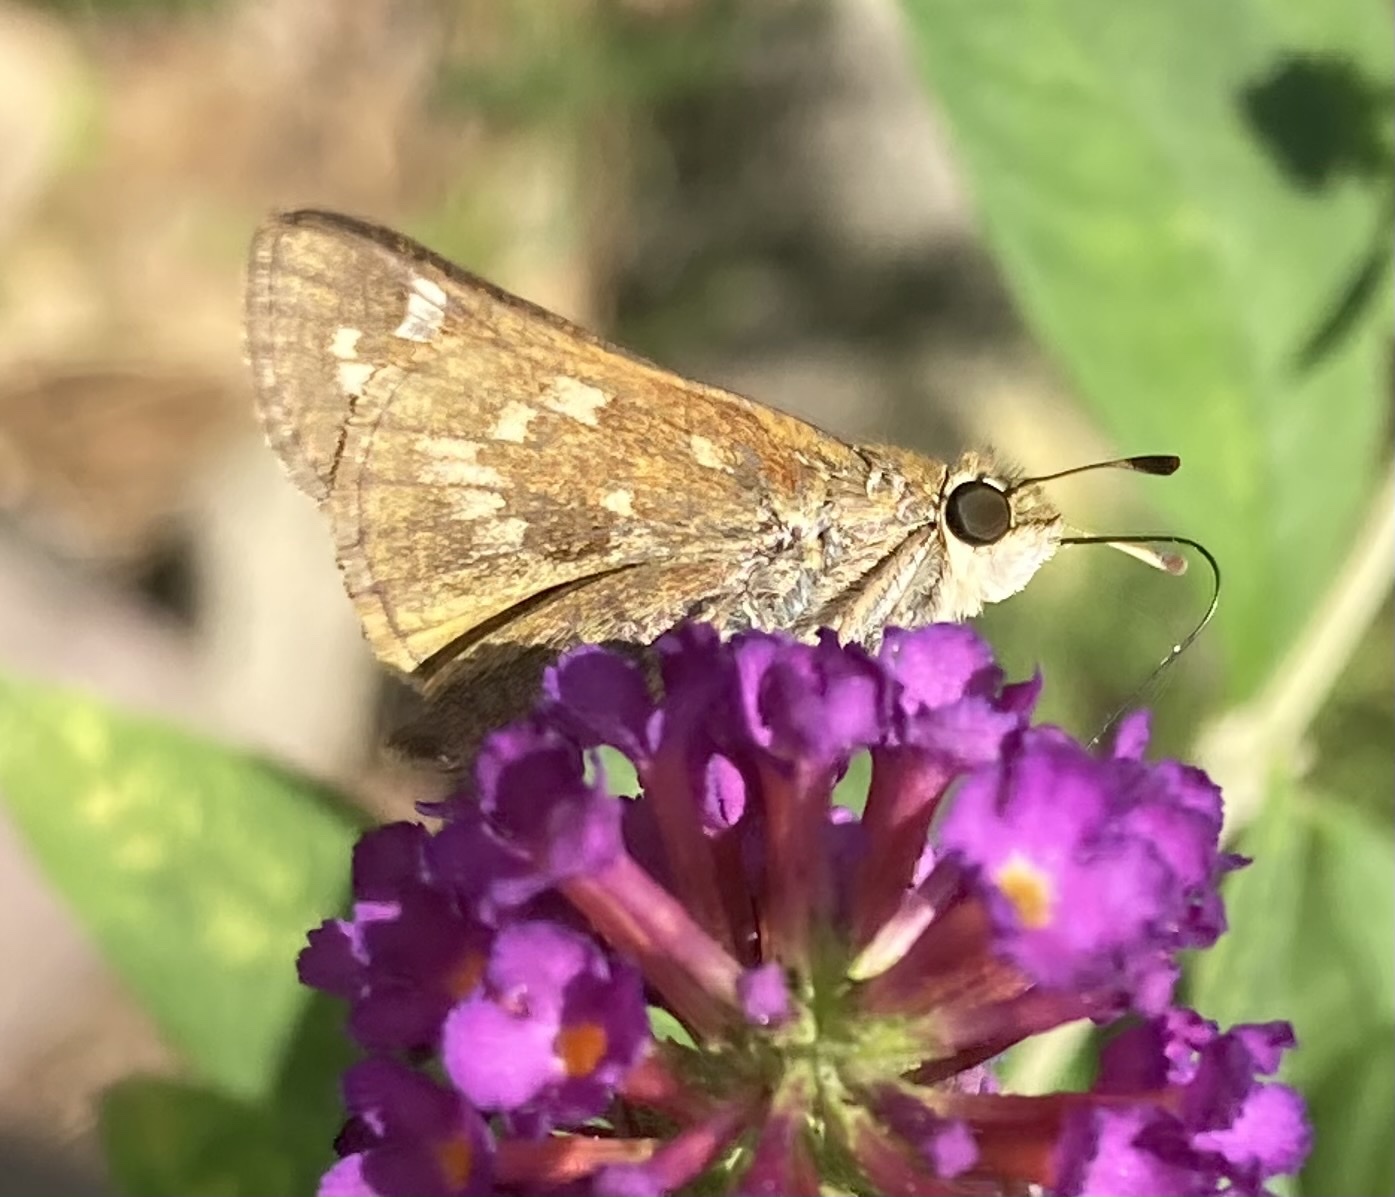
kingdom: Animalia
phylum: Arthropoda
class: Insecta
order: Lepidoptera
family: Hesperiidae
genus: Atalopedes
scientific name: Atalopedes
